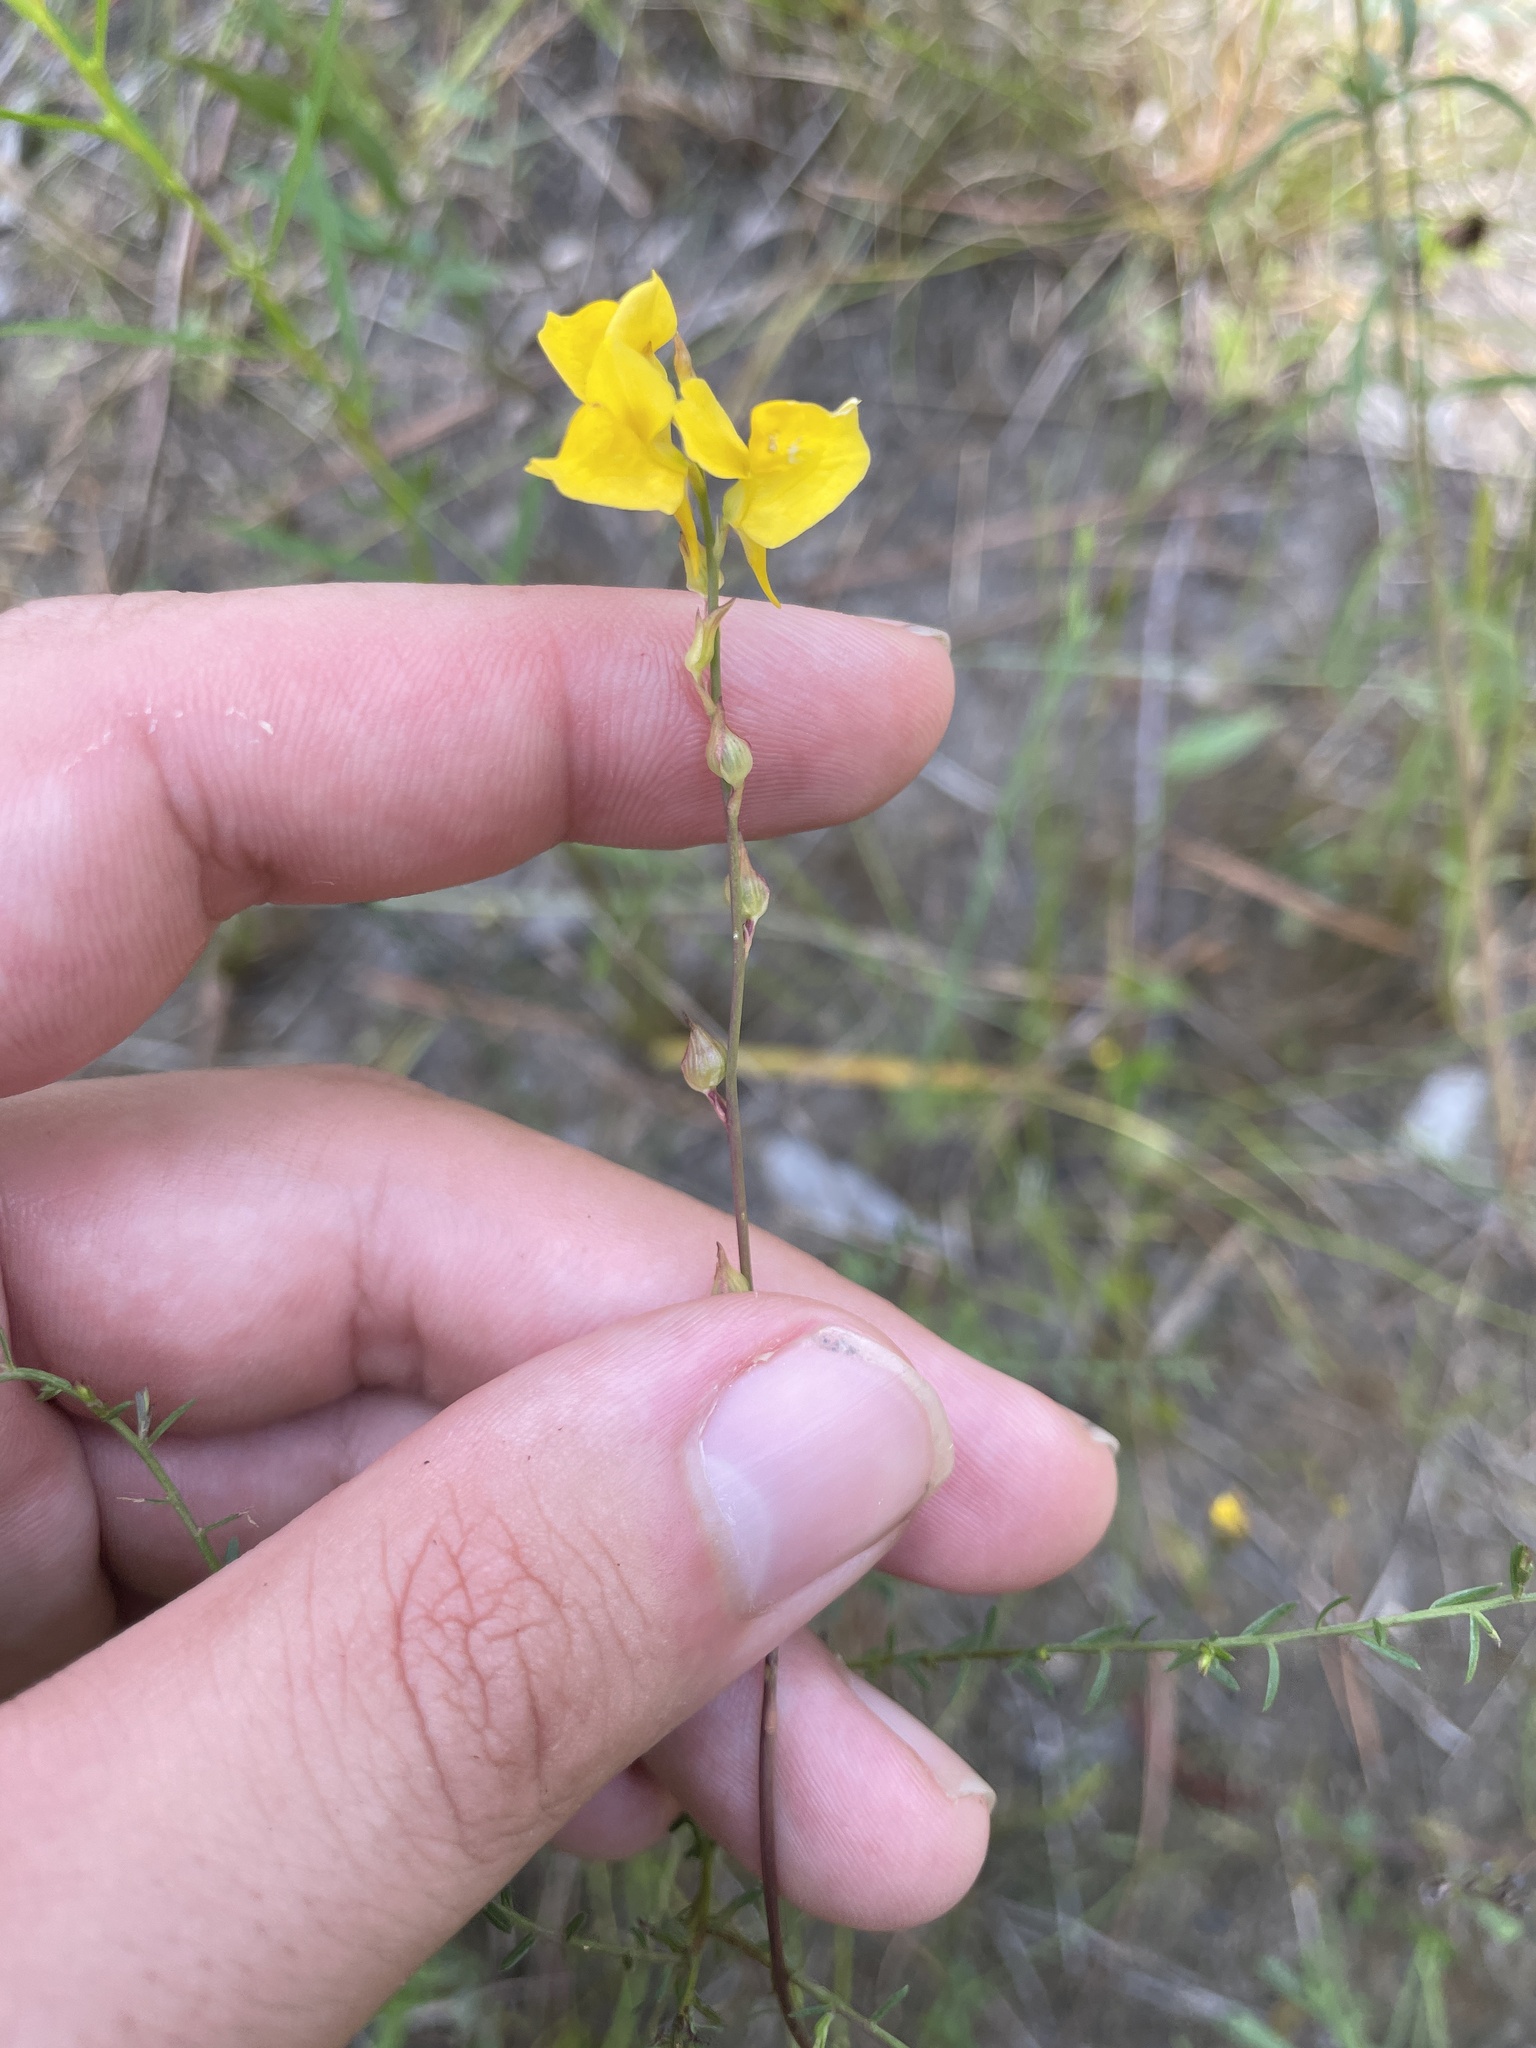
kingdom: Plantae
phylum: Tracheophyta
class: Magnoliopsida
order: Lamiales
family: Lentibulariaceae
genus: Utricularia
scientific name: Utricularia juncea
